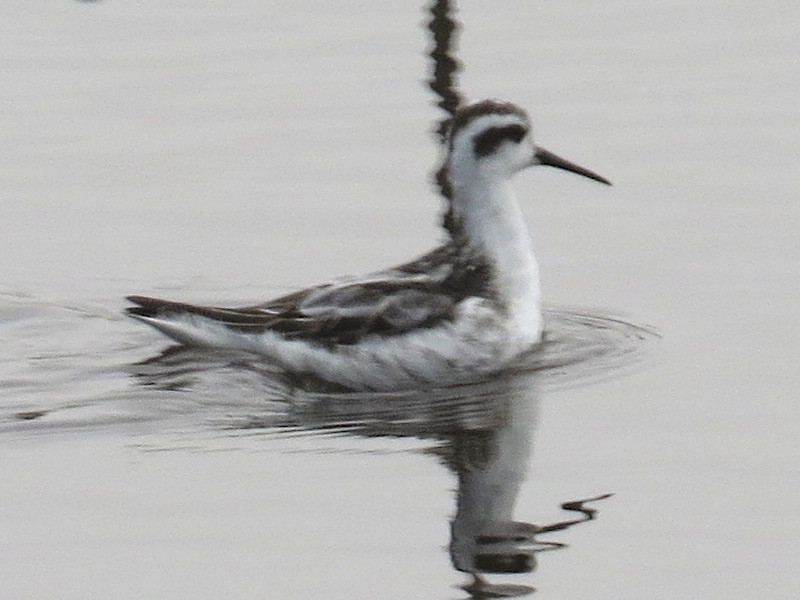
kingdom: Animalia
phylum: Chordata
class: Aves
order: Charadriiformes
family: Scolopacidae
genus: Phalaropus
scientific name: Phalaropus lobatus
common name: Red-necked phalarope
